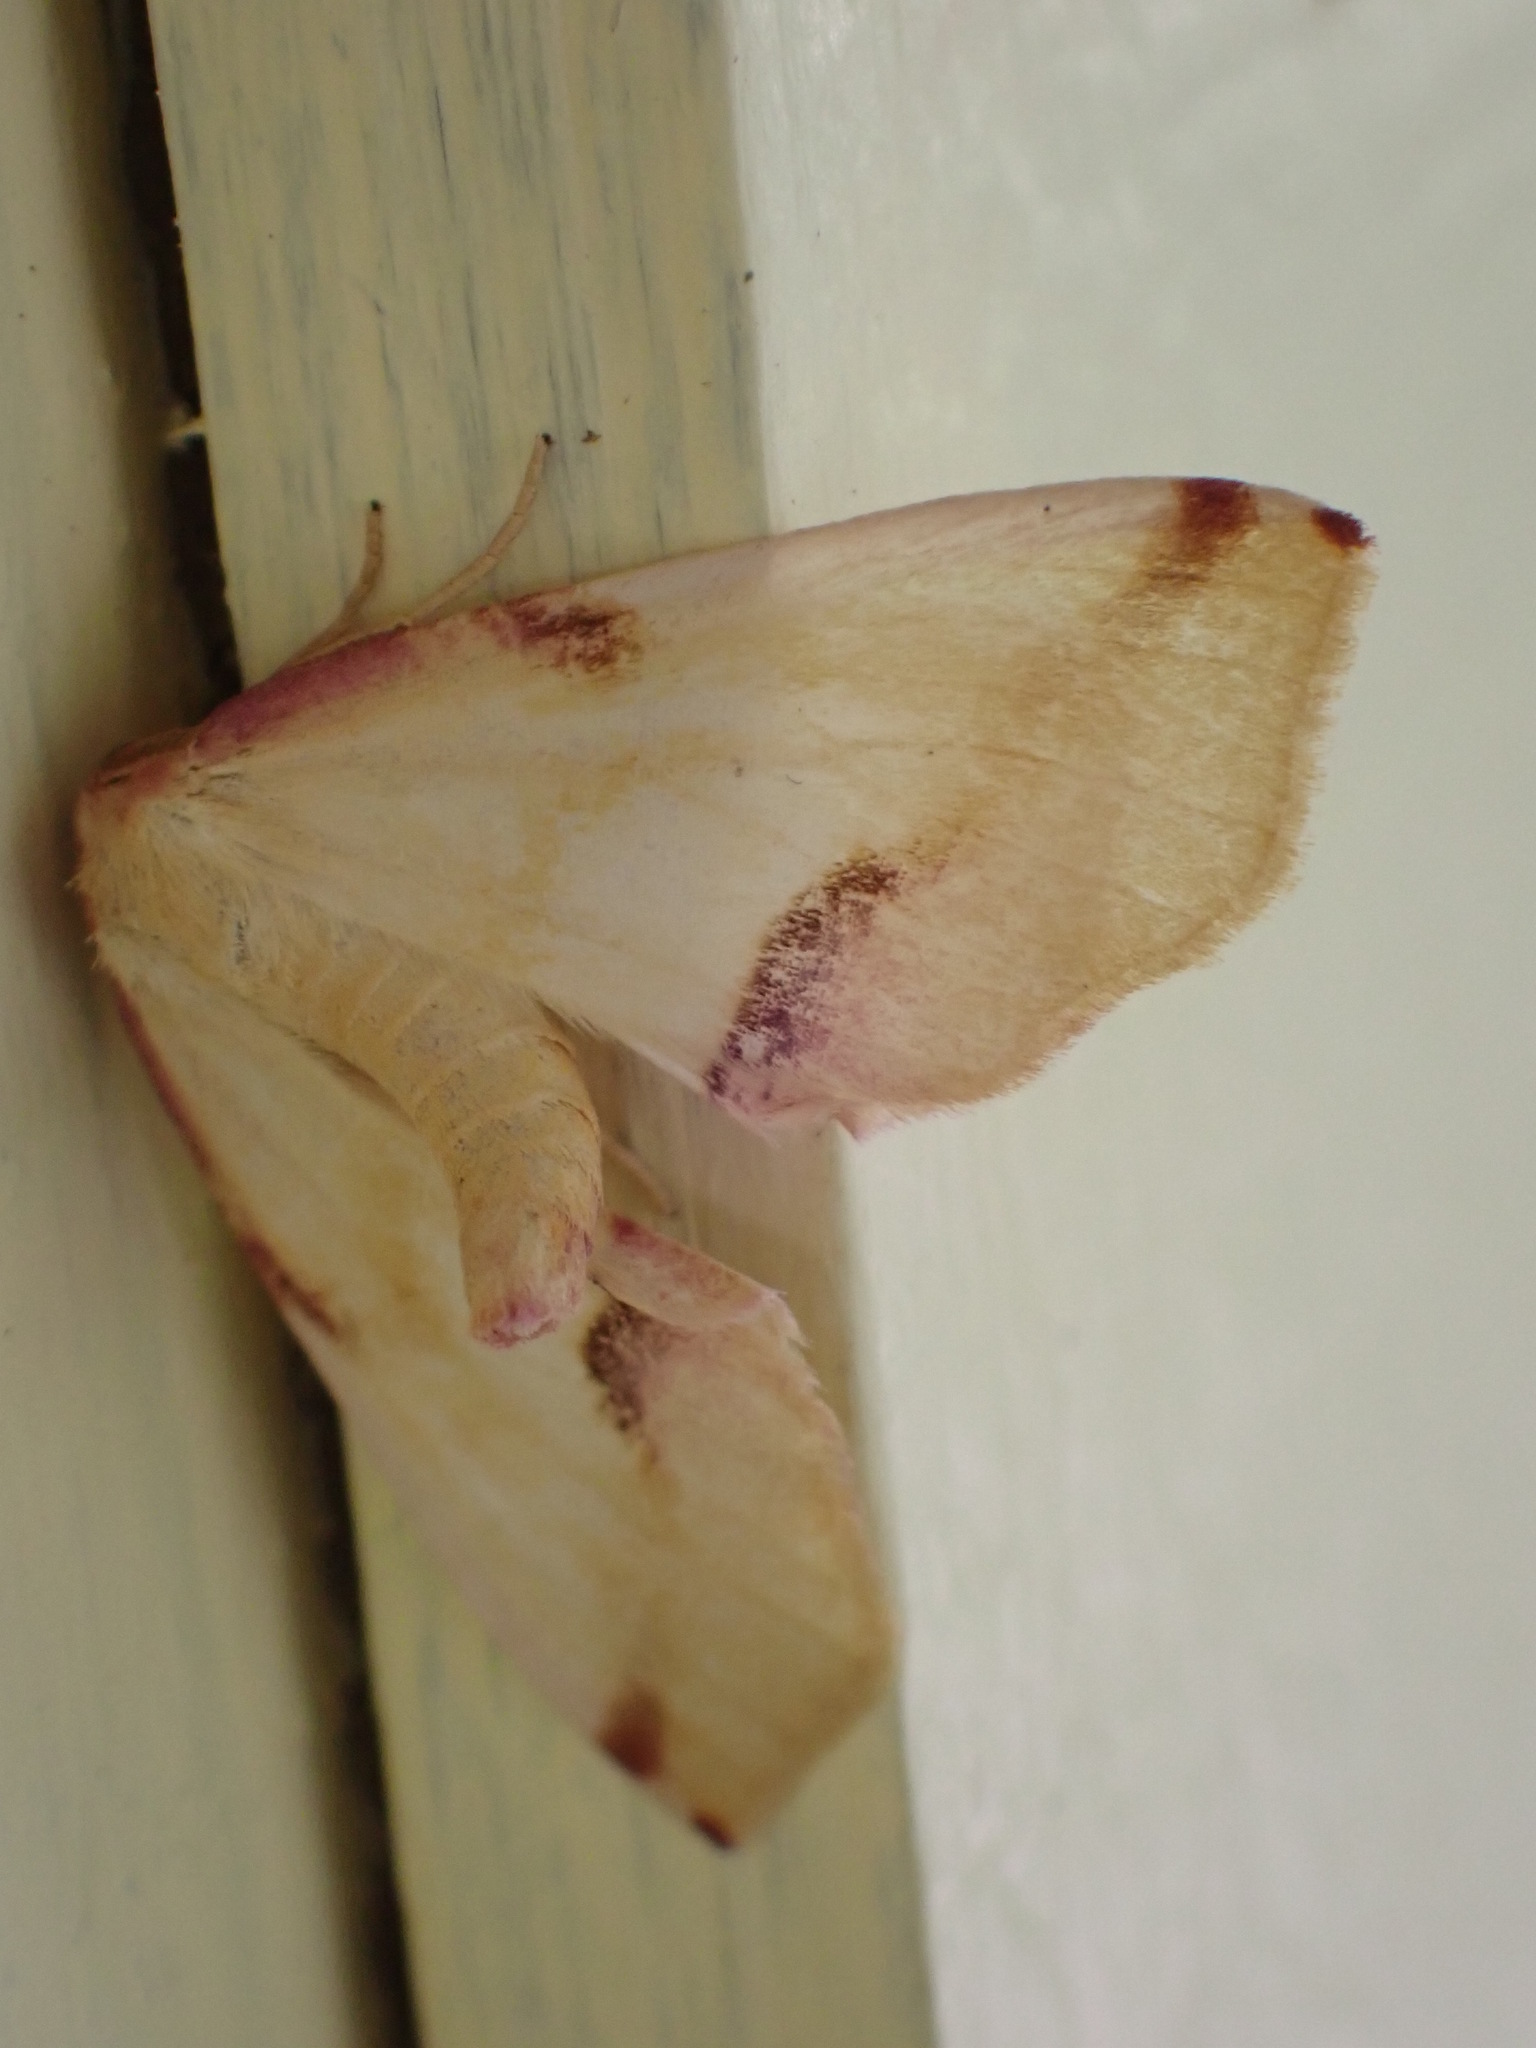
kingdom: Animalia
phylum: Arthropoda
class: Insecta
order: Lepidoptera
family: Geometridae
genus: Plagodis
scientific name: Plagodis serinaria
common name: Lemon plagodis
